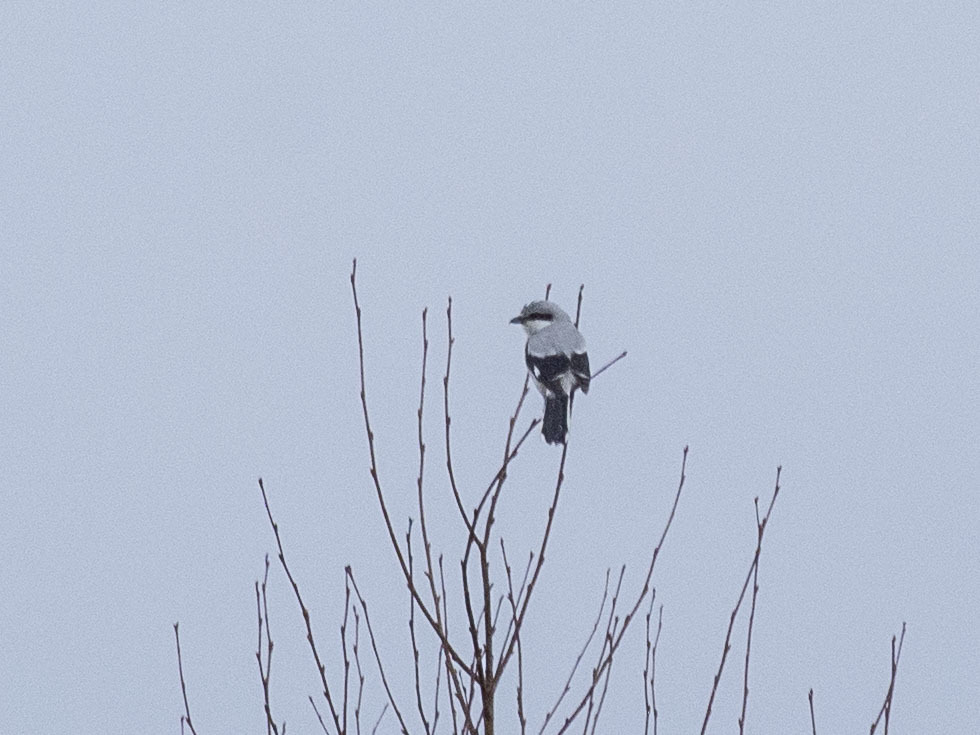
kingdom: Animalia
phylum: Chordata
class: Aves
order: Passeriformes
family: Laniidae
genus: Lanius
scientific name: Lanius excubitor
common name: Great grey shrike
